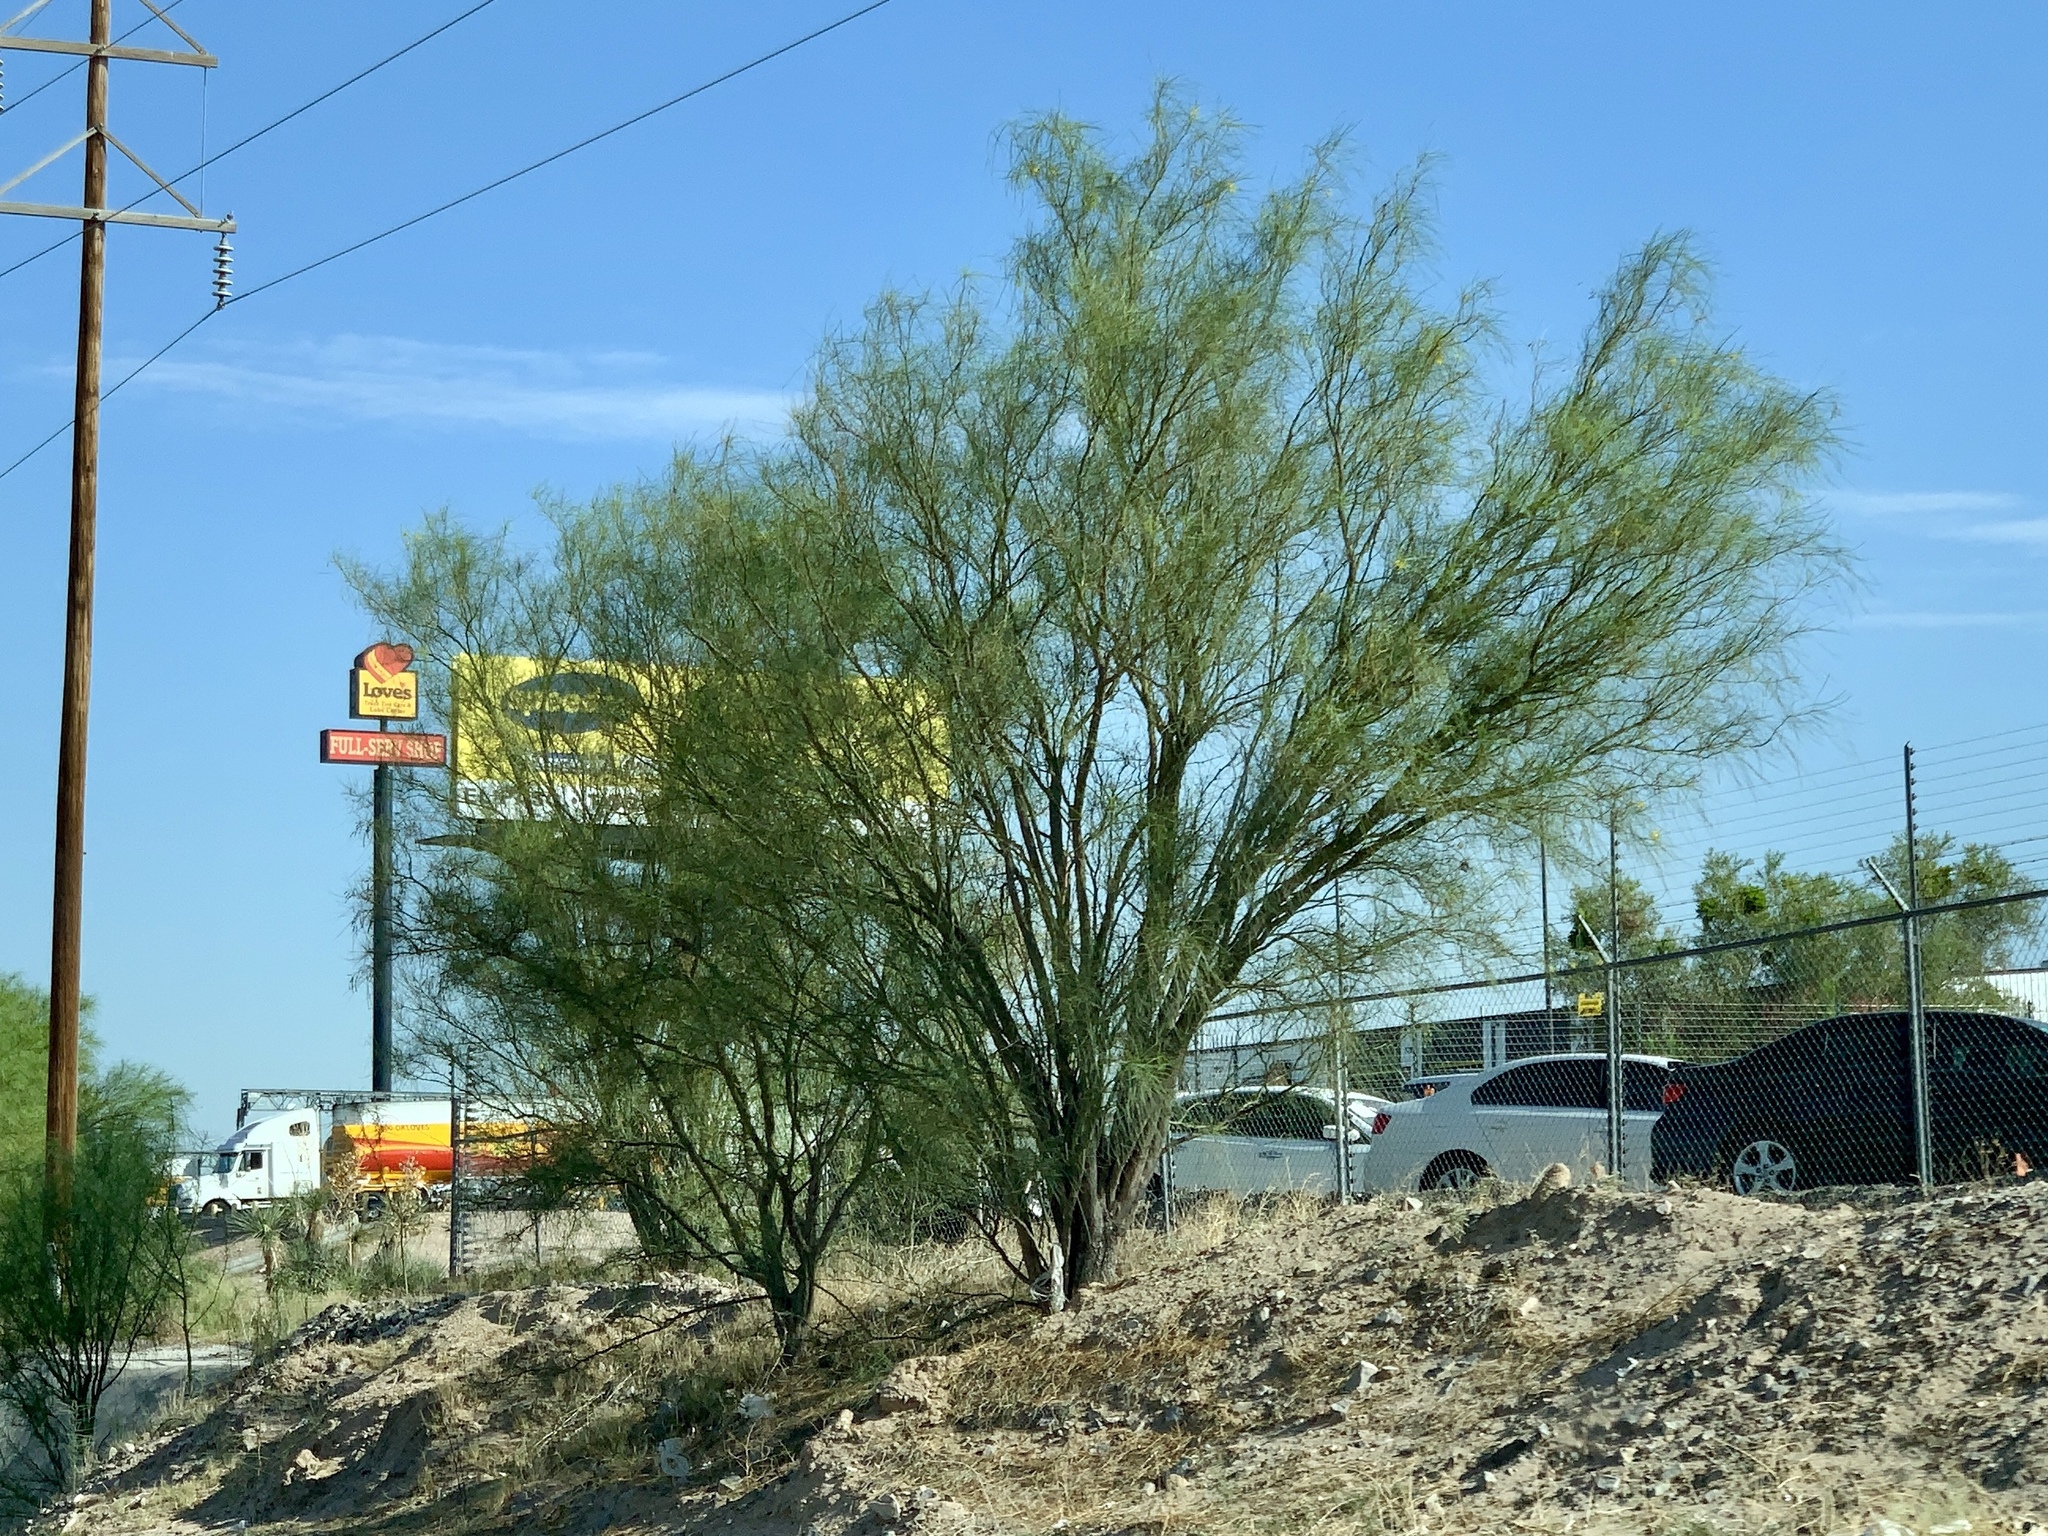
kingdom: Plantae
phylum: Tracheophyta
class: Magnoliopsida
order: Fabales
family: Fabaceae
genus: Parkinsonia
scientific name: Parkinsonia aculeata
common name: Jerusalem thorn
